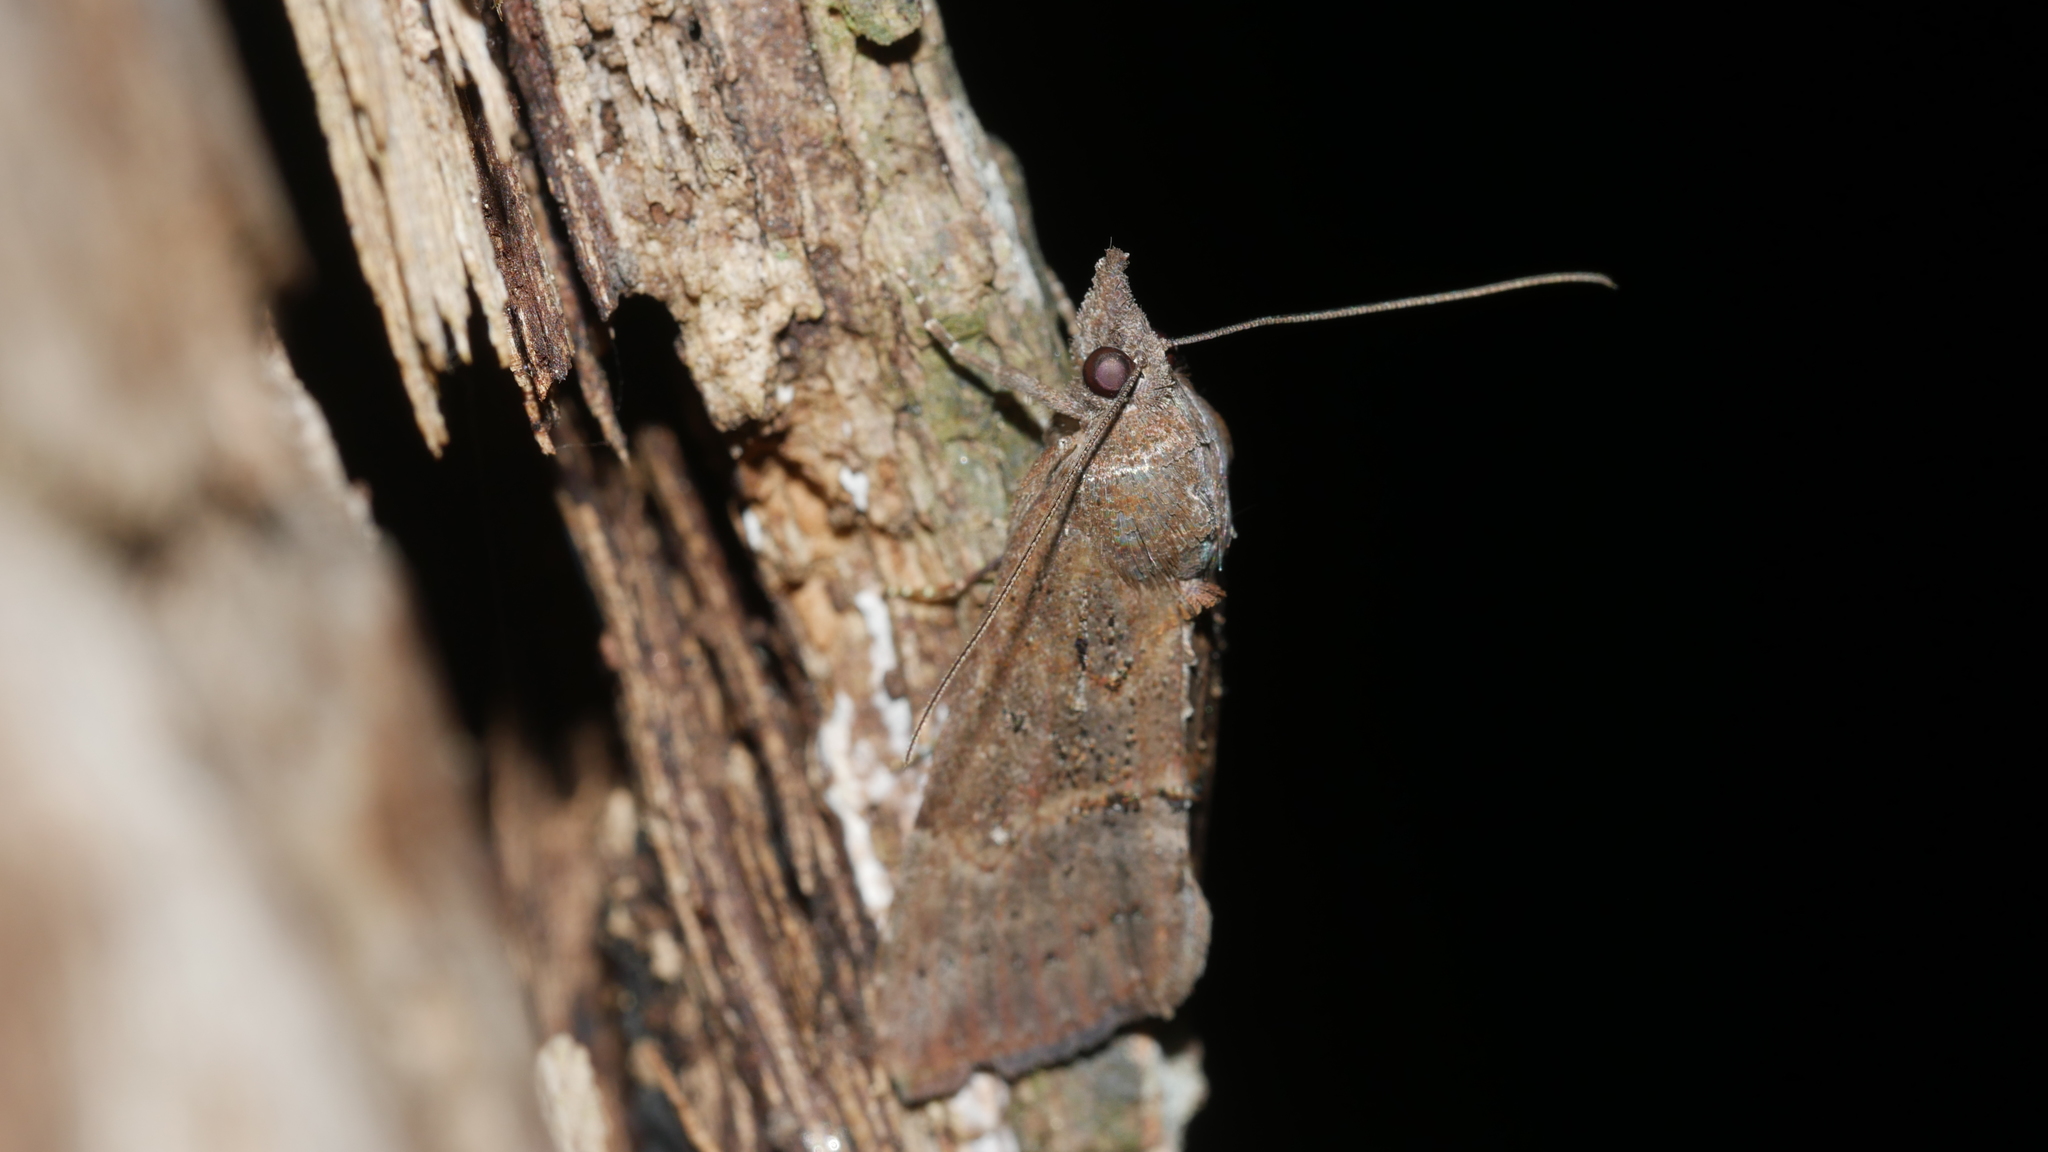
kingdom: Animalia
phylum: Arthropoda
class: Insecta
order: Lepidoptera
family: Erebidae
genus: Hypena
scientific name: Hypena scabra
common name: Green cloverworm
